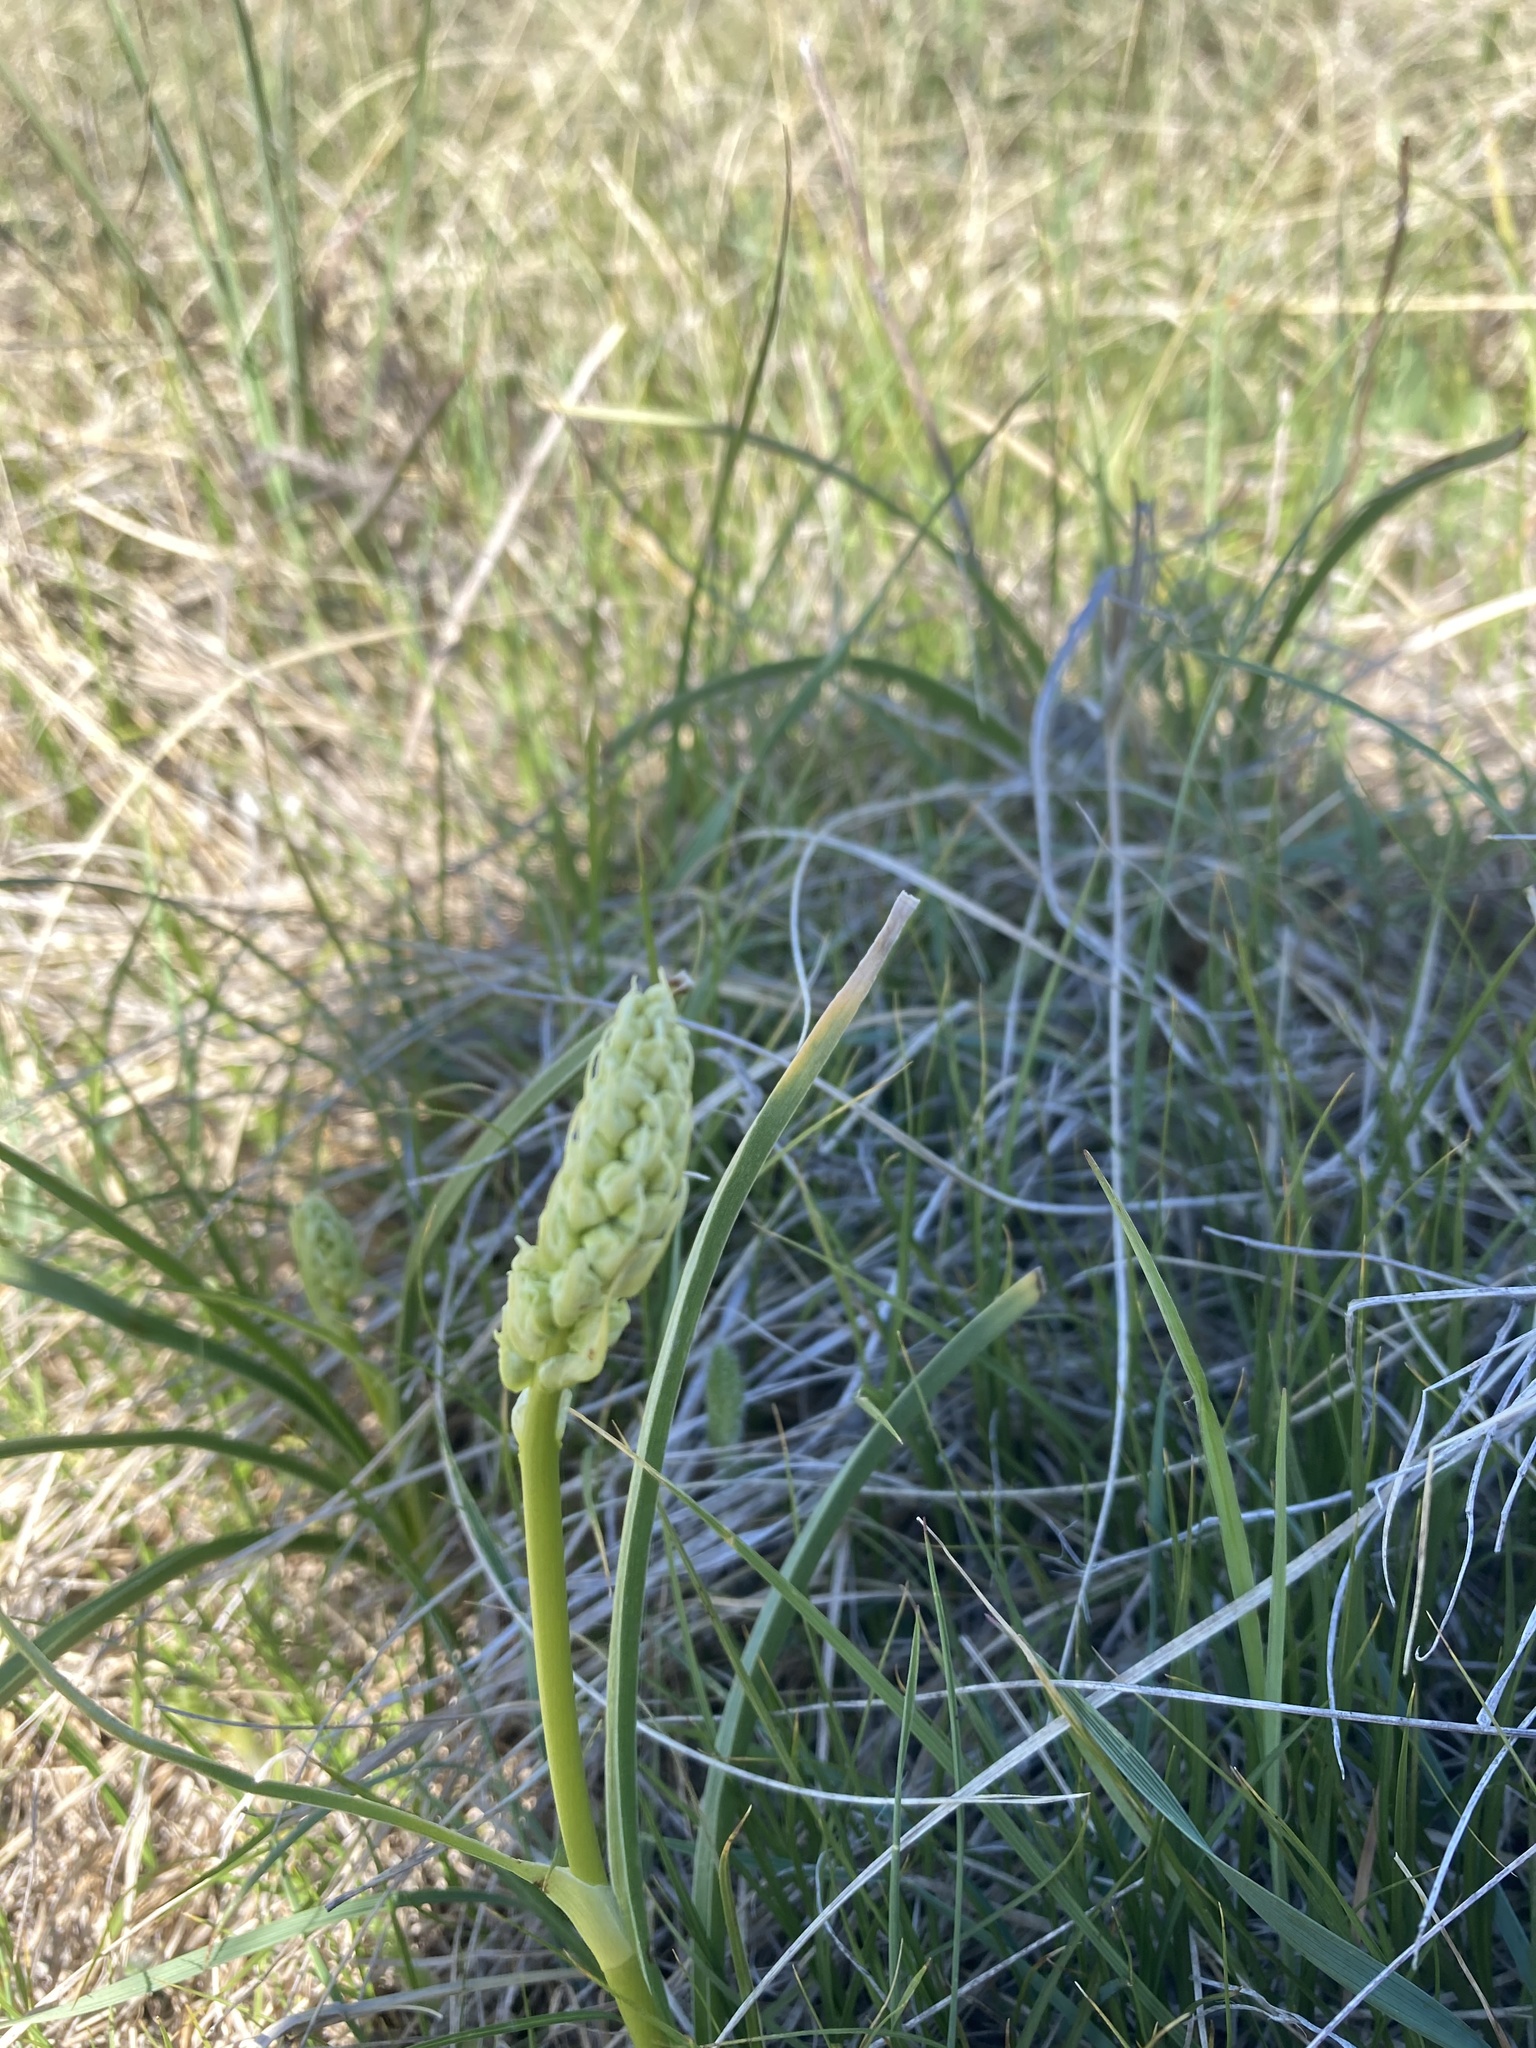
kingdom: Plantae
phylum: Tracheophyta
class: Liliopsida
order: Liliales
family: Melanthiaceae
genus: Toxicoscordion
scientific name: Toxicoscordion venenosum
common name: Meadow death camas
